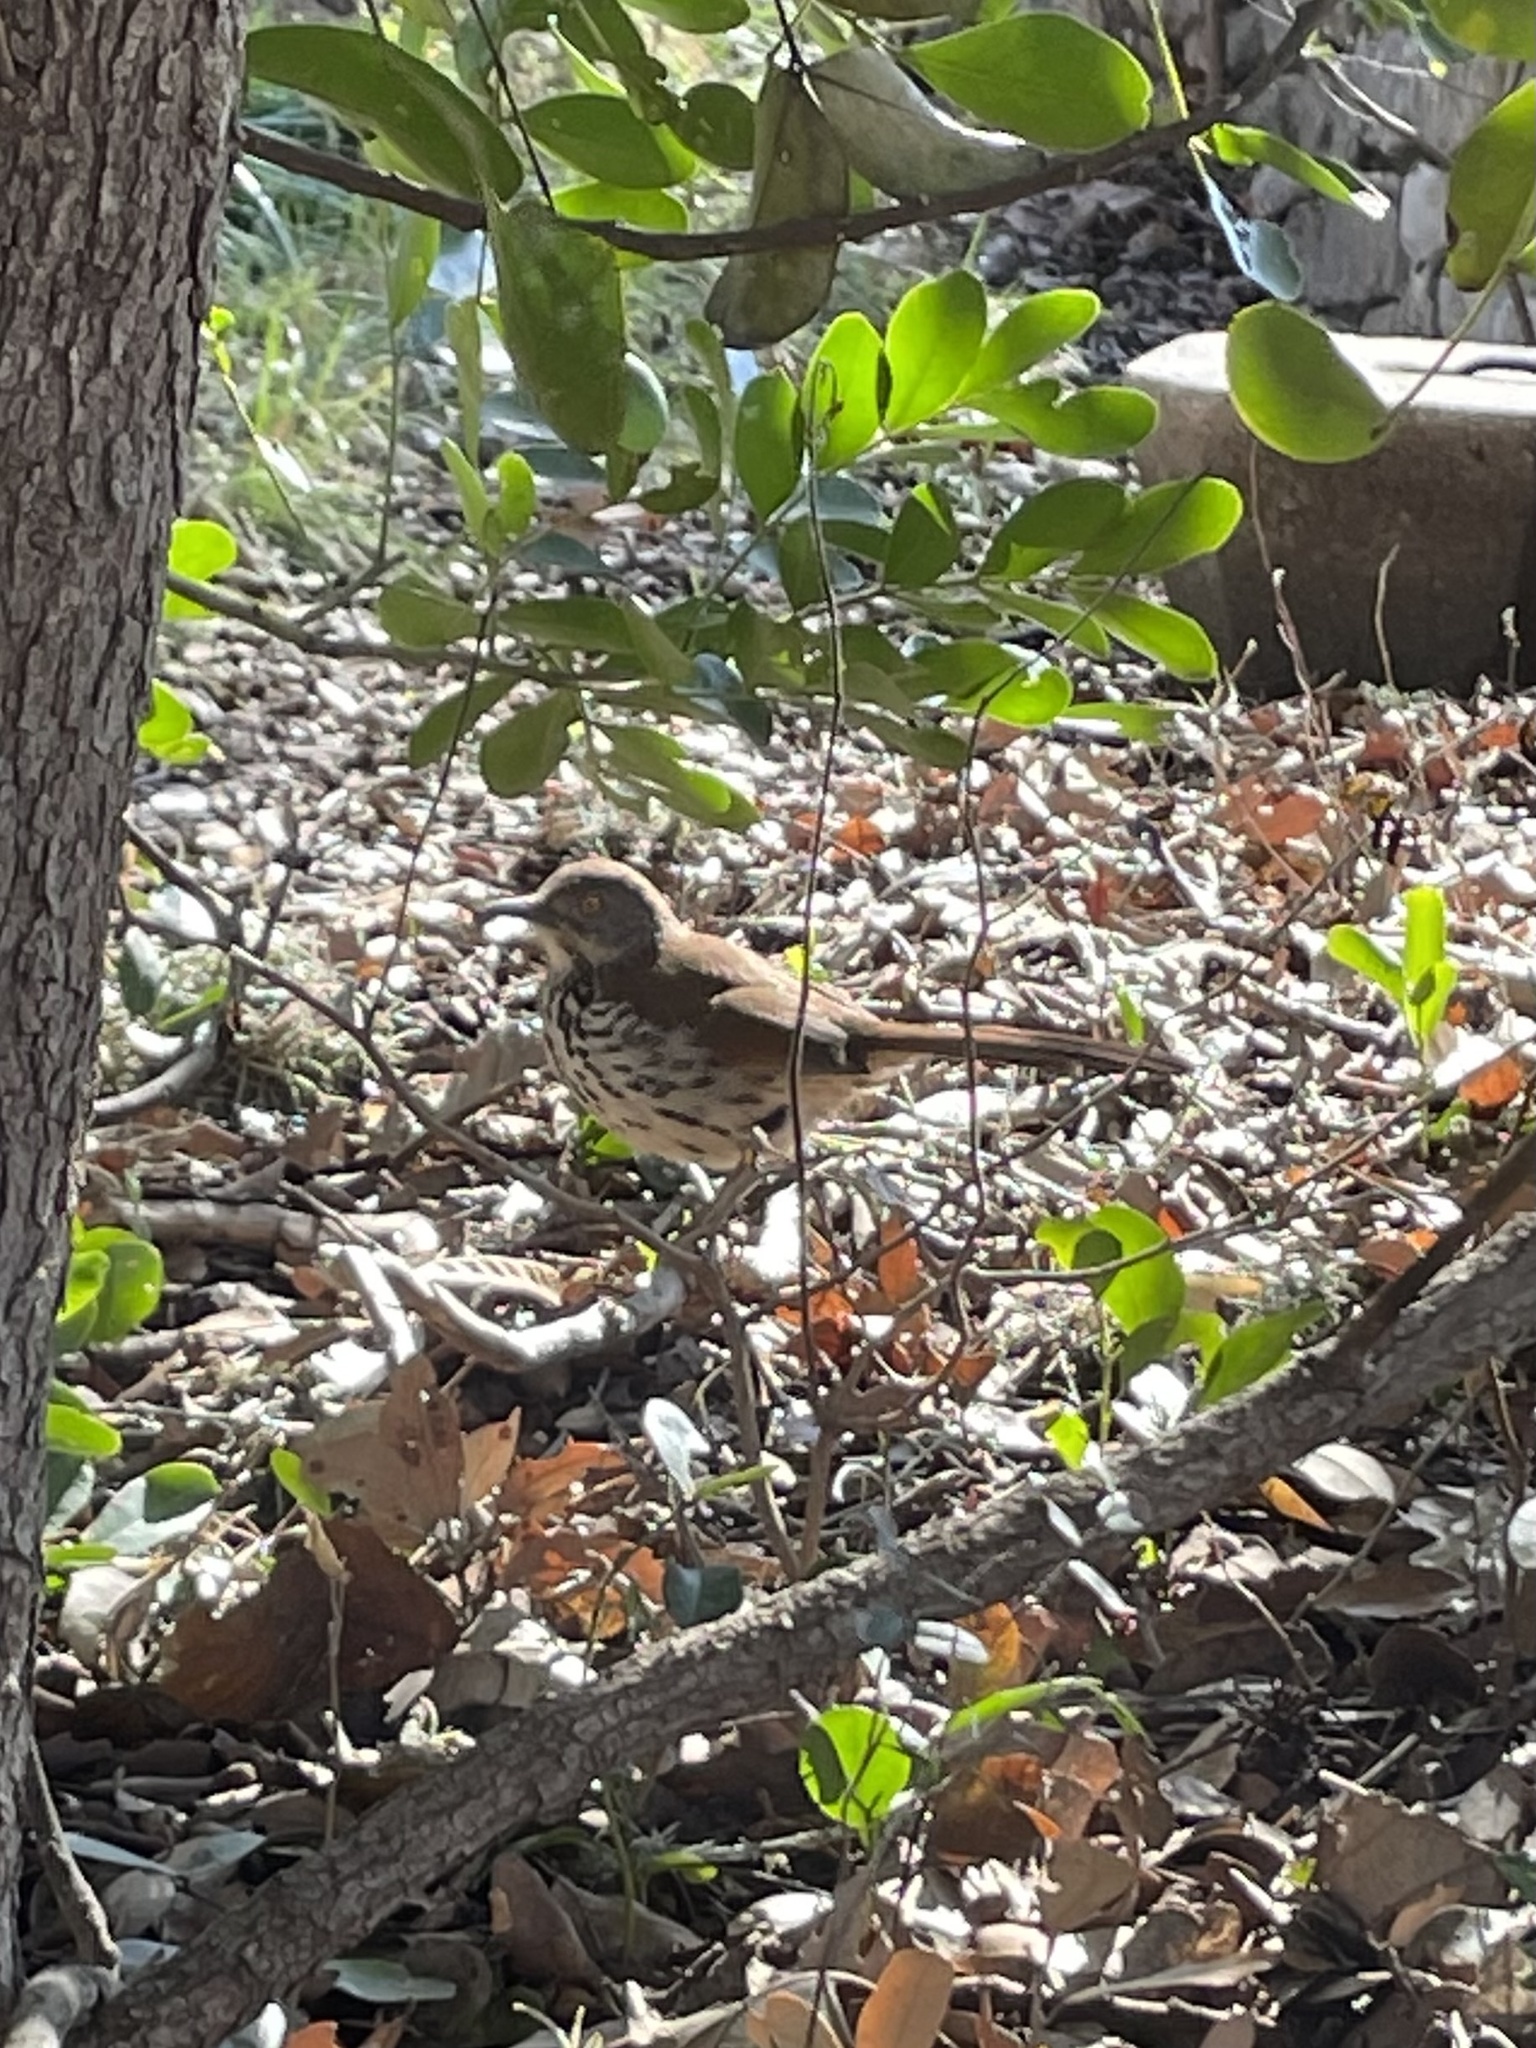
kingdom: Animalia
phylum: Chordata
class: Aves
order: Passeriformes
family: Mimidae
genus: Toxostoma
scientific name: Toxostoma longirostre
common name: Long-billed thrasher
